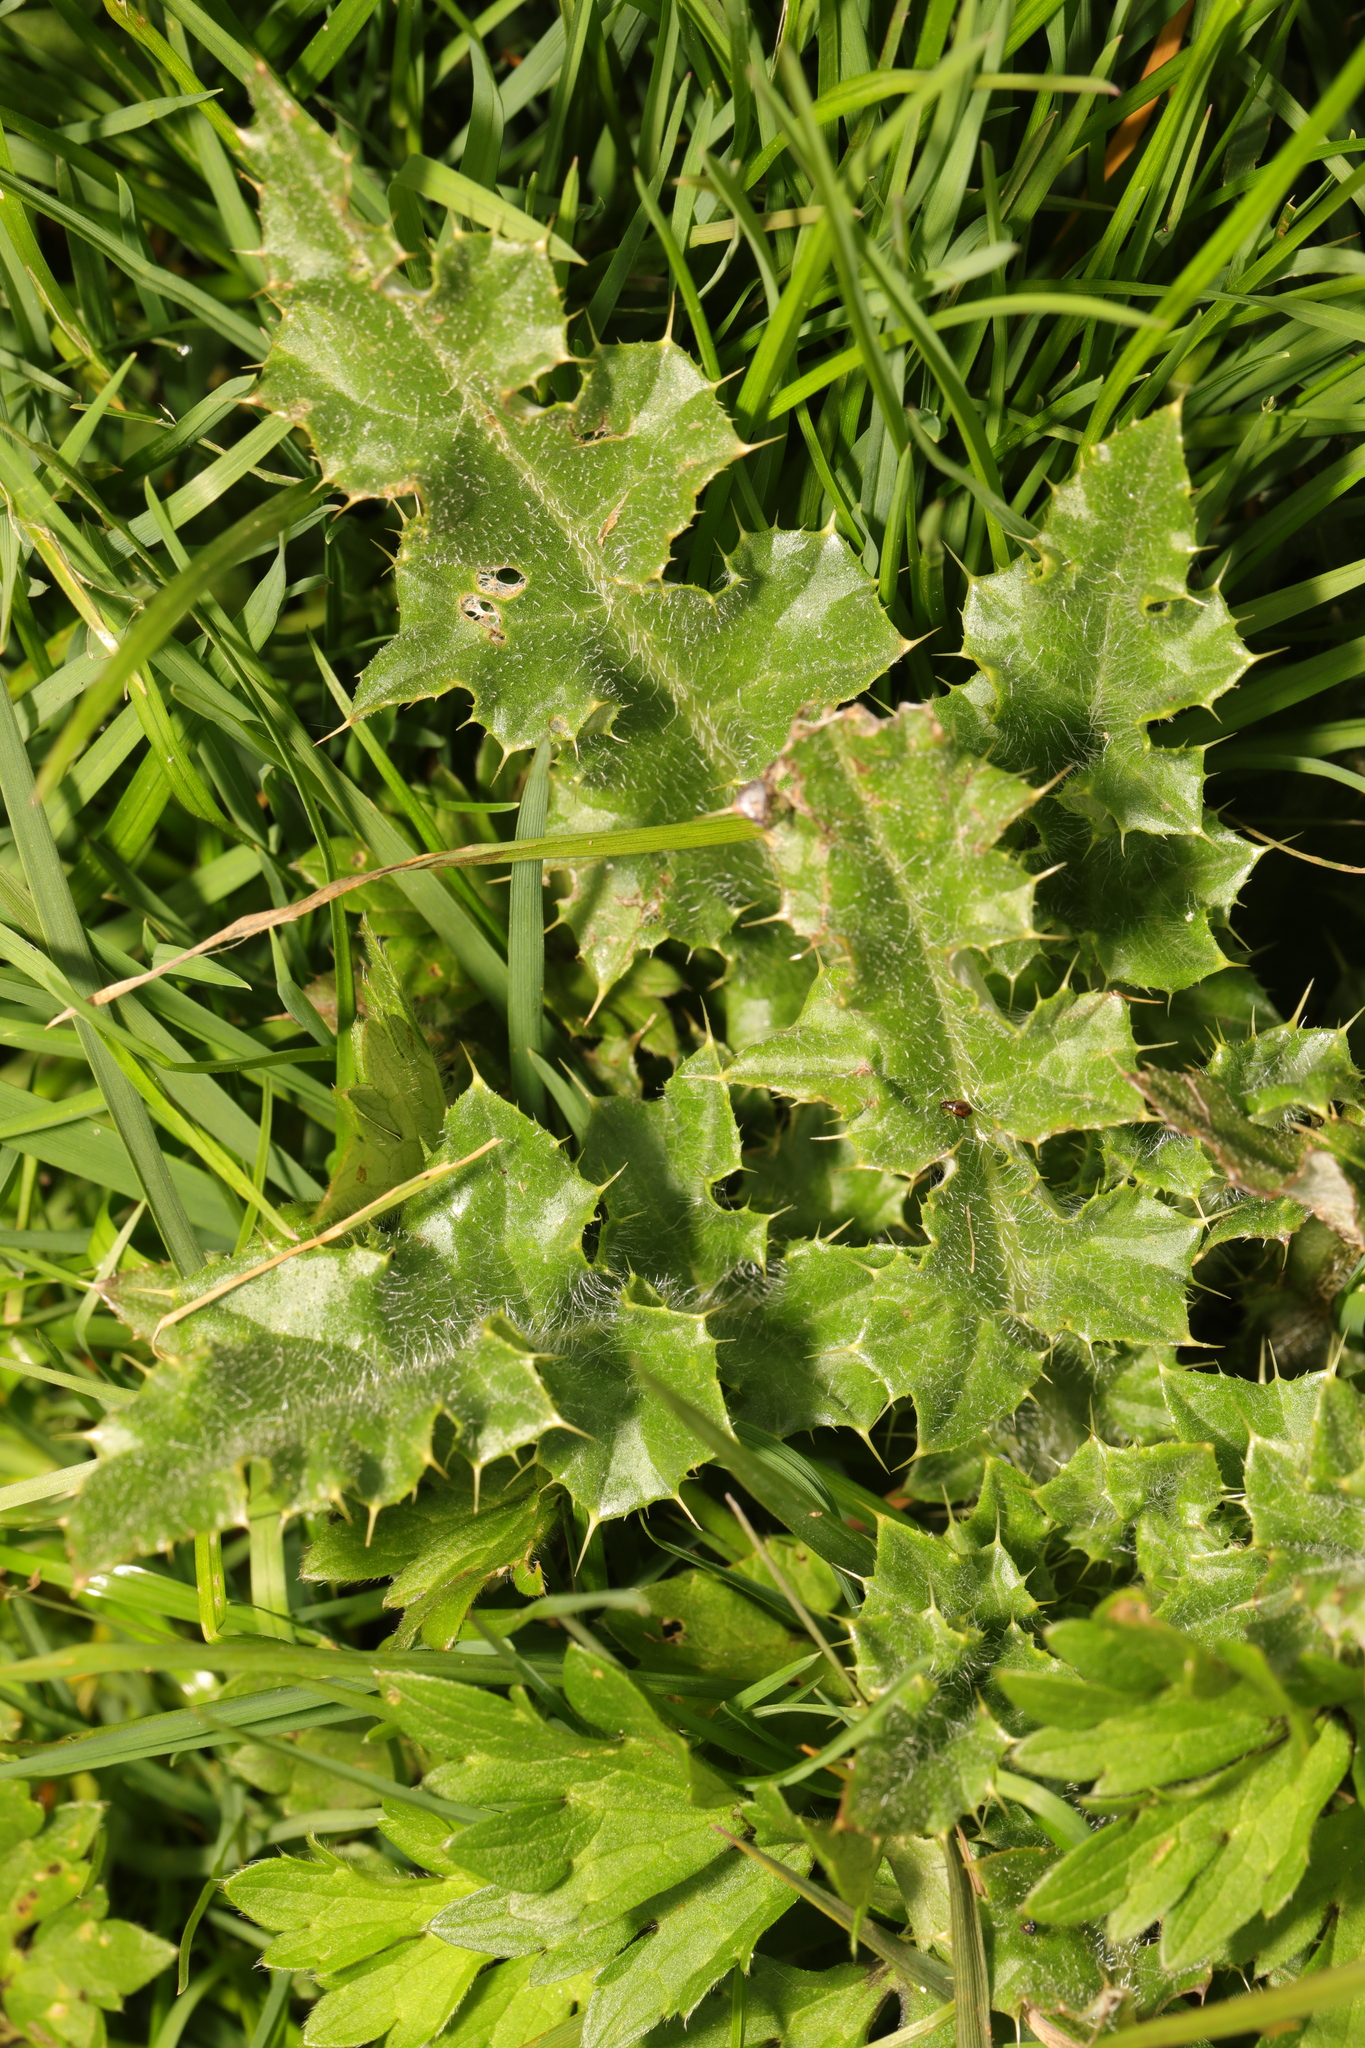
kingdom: Plantae
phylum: Tracheophyta
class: Magnoliopsida
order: Asterales
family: Asteraceae
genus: Cirsium
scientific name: Cirsium arvense
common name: Creeping thistle
